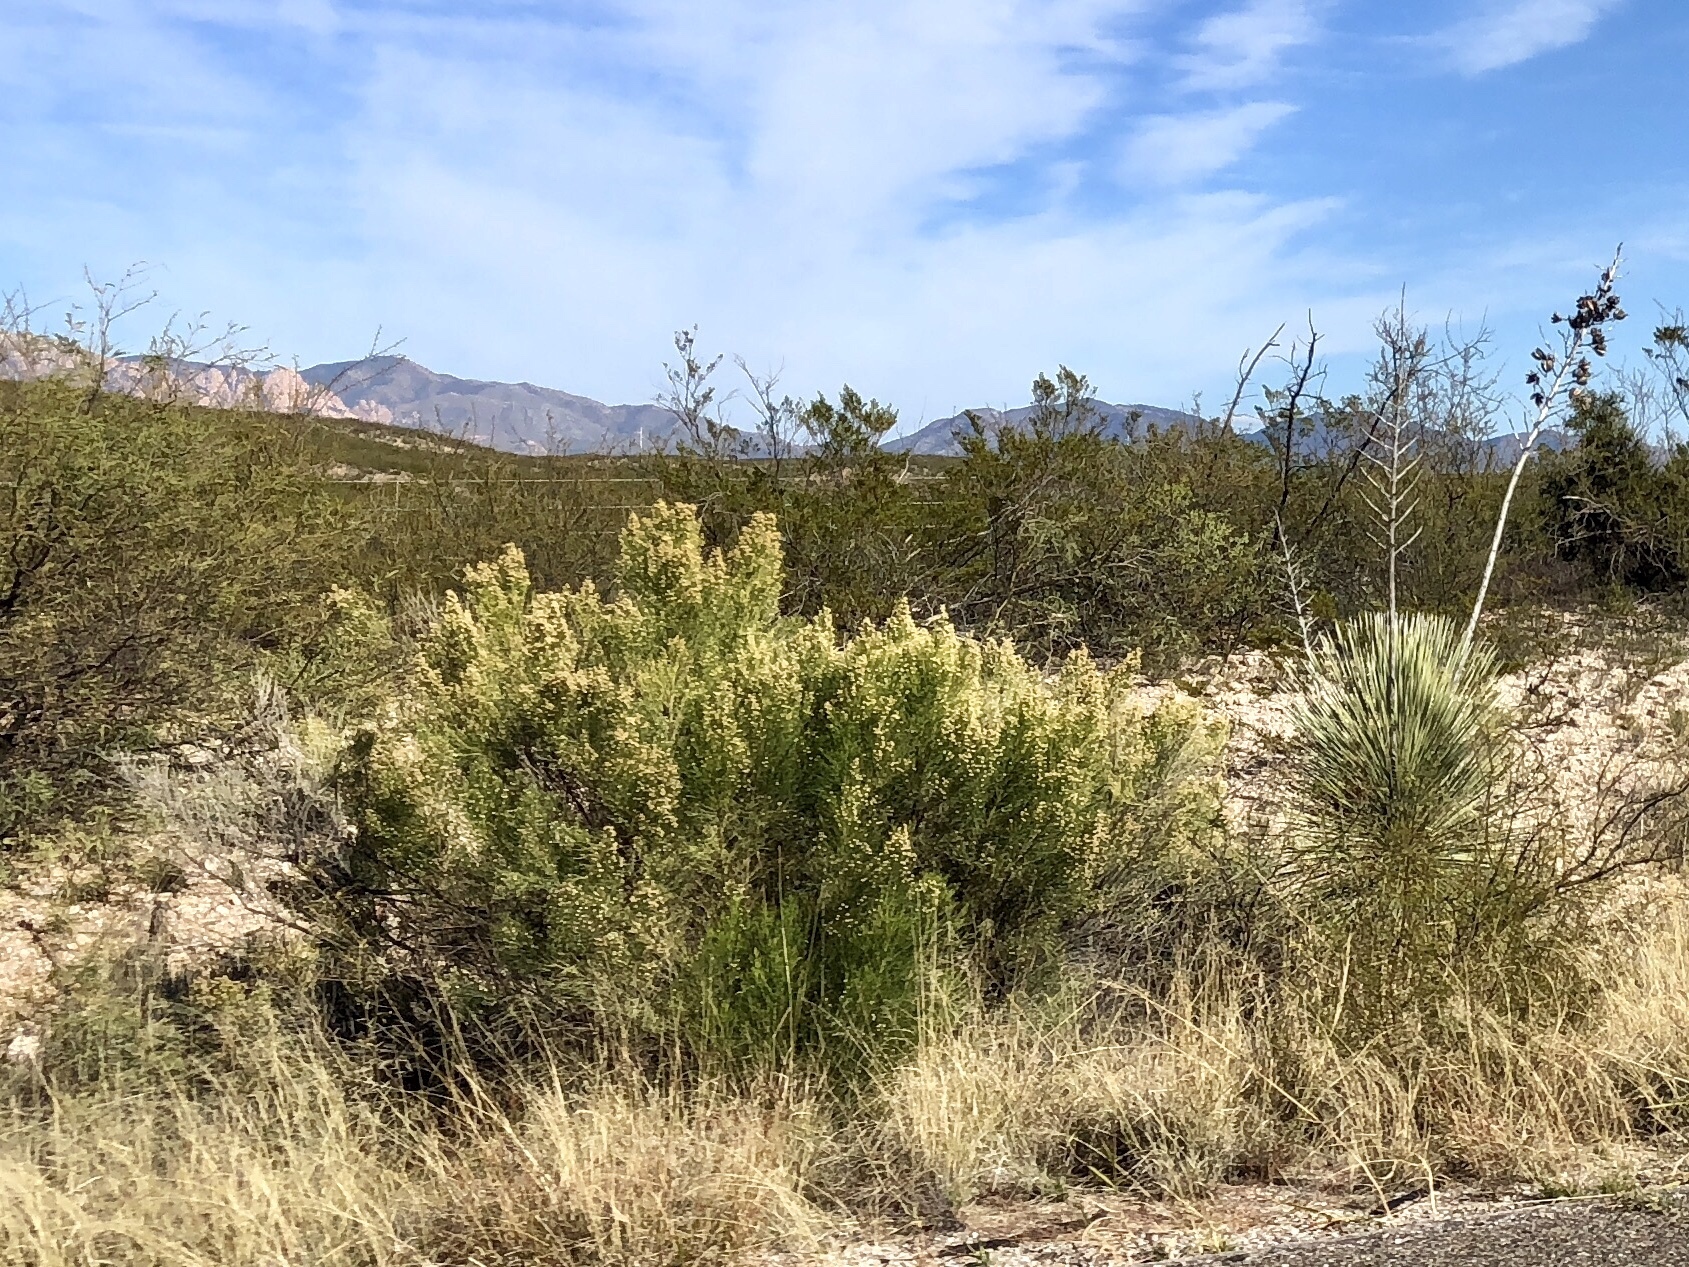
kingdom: Plantae
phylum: Tracheophyta
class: Magnoliopsida
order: Asterales
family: Asteraceae
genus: Baccharis
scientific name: Baccharis sarothroides
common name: Desert-broom
